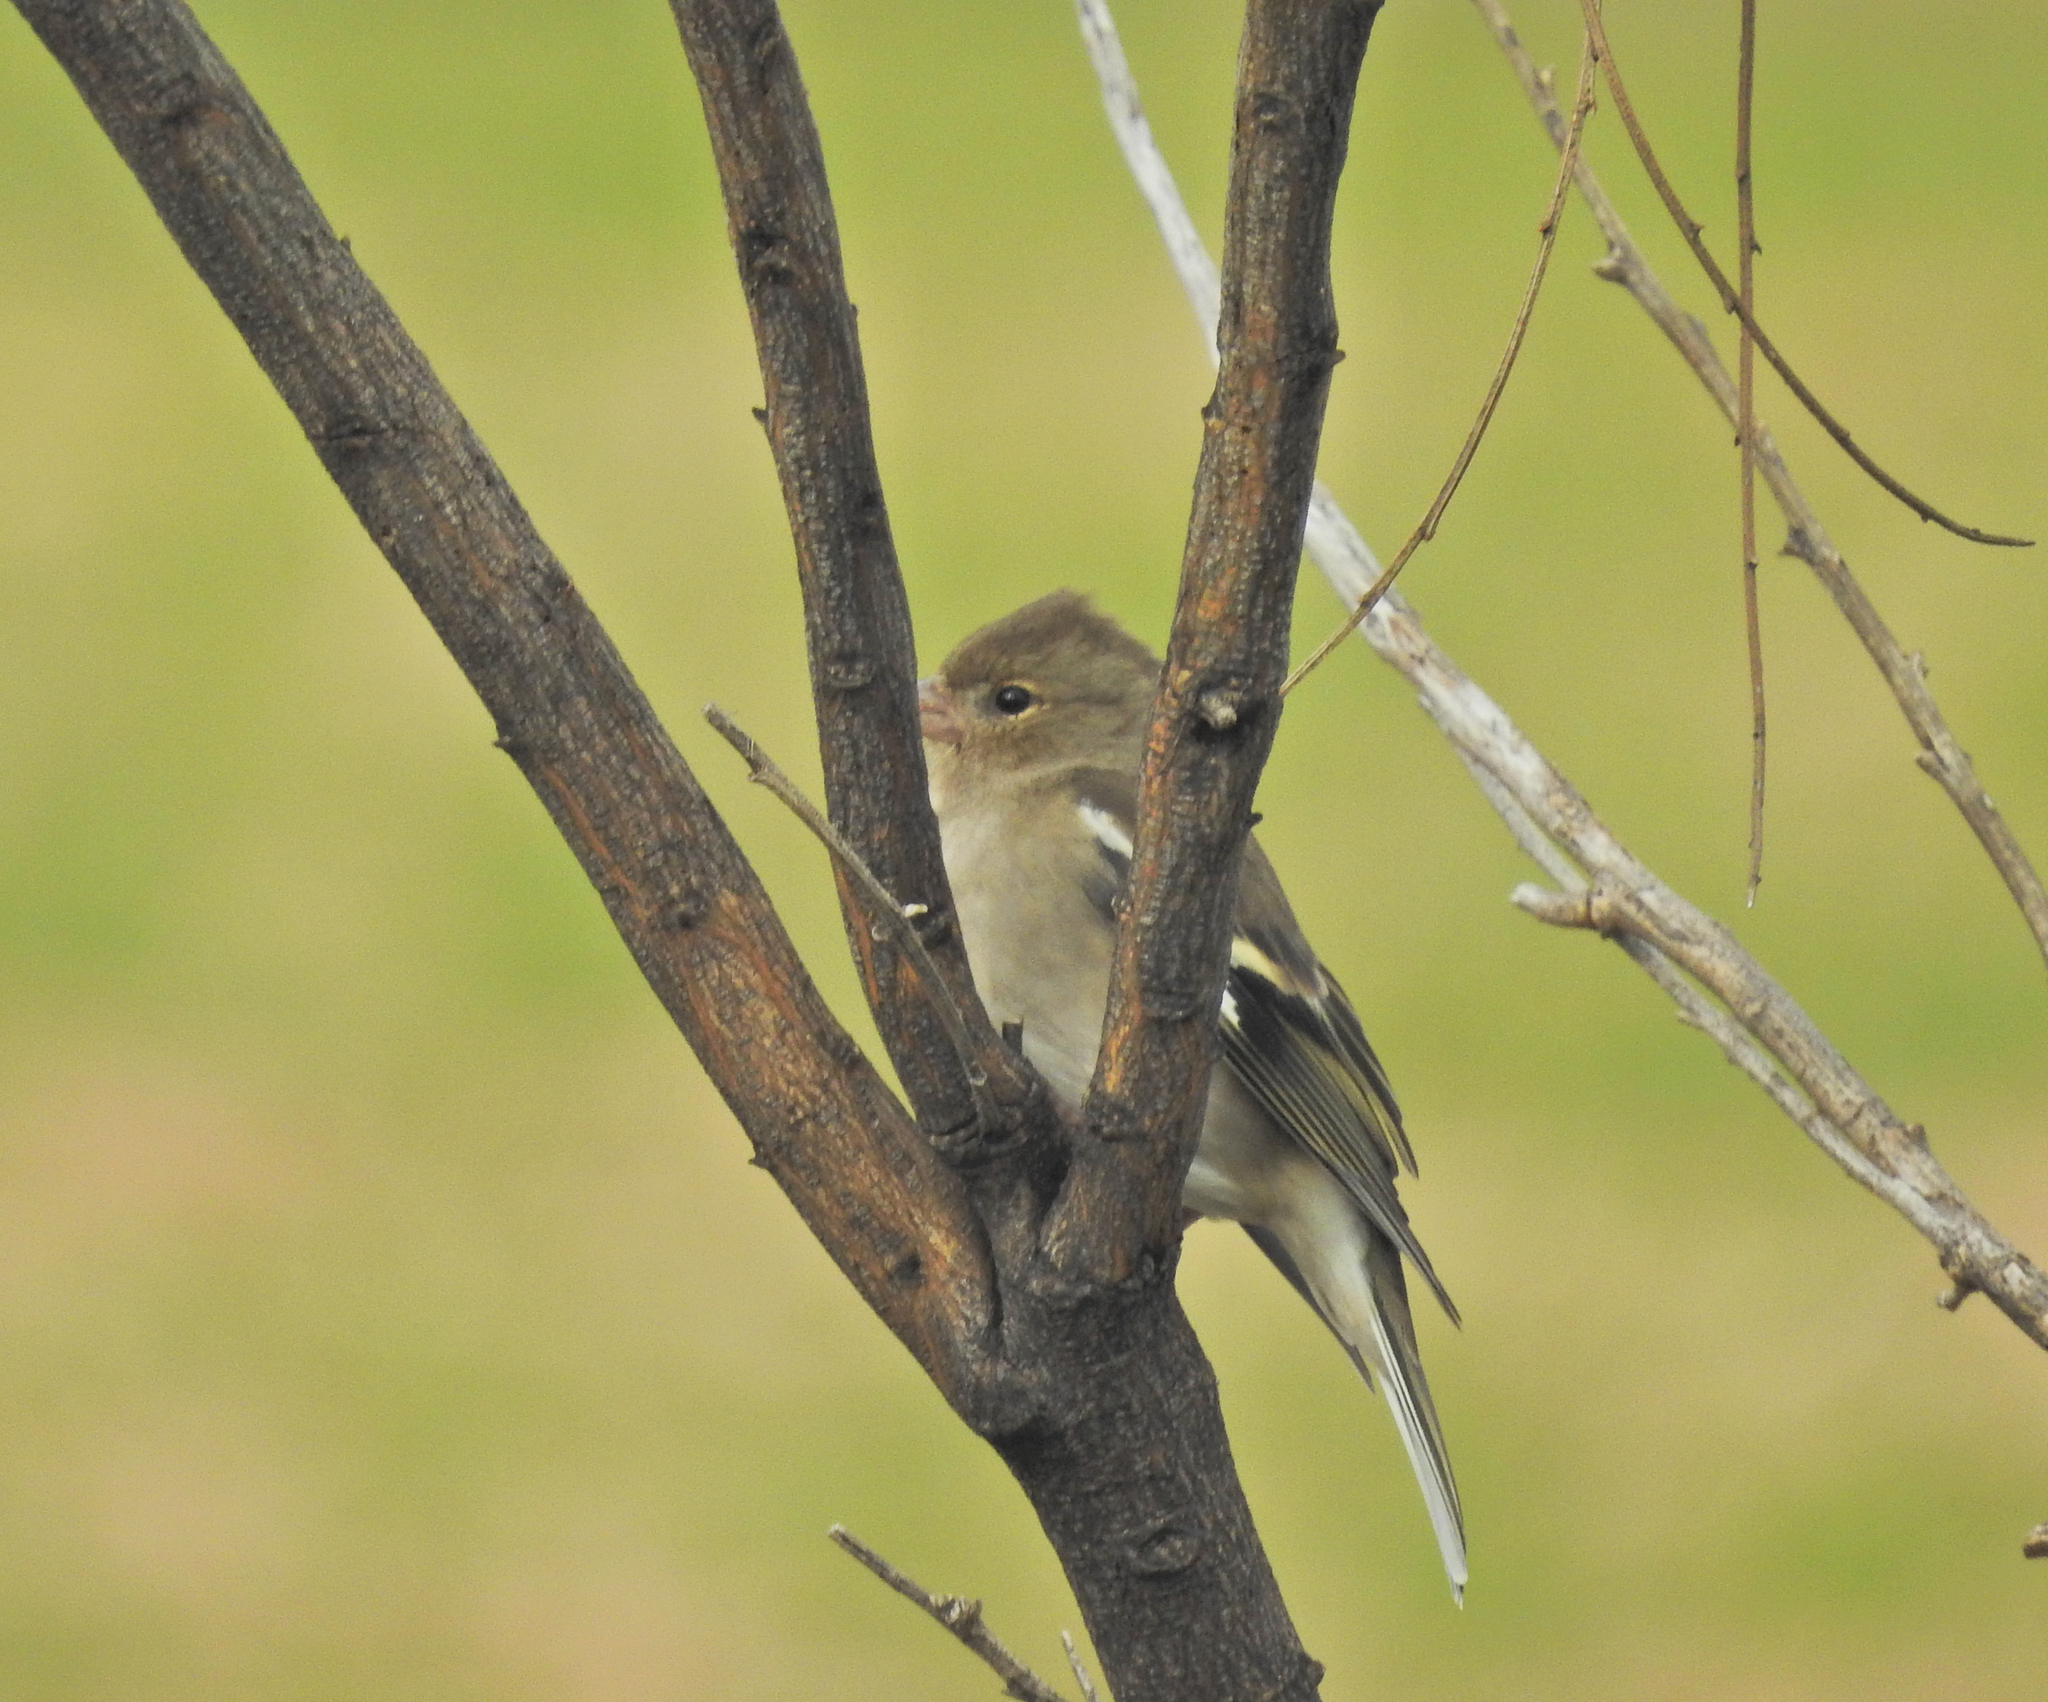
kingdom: Animalia
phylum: Chordata
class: Aves
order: Passeriformes
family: Fringillidae
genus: Fringilla
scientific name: Fringilla coelebs
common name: Common chaffinch
